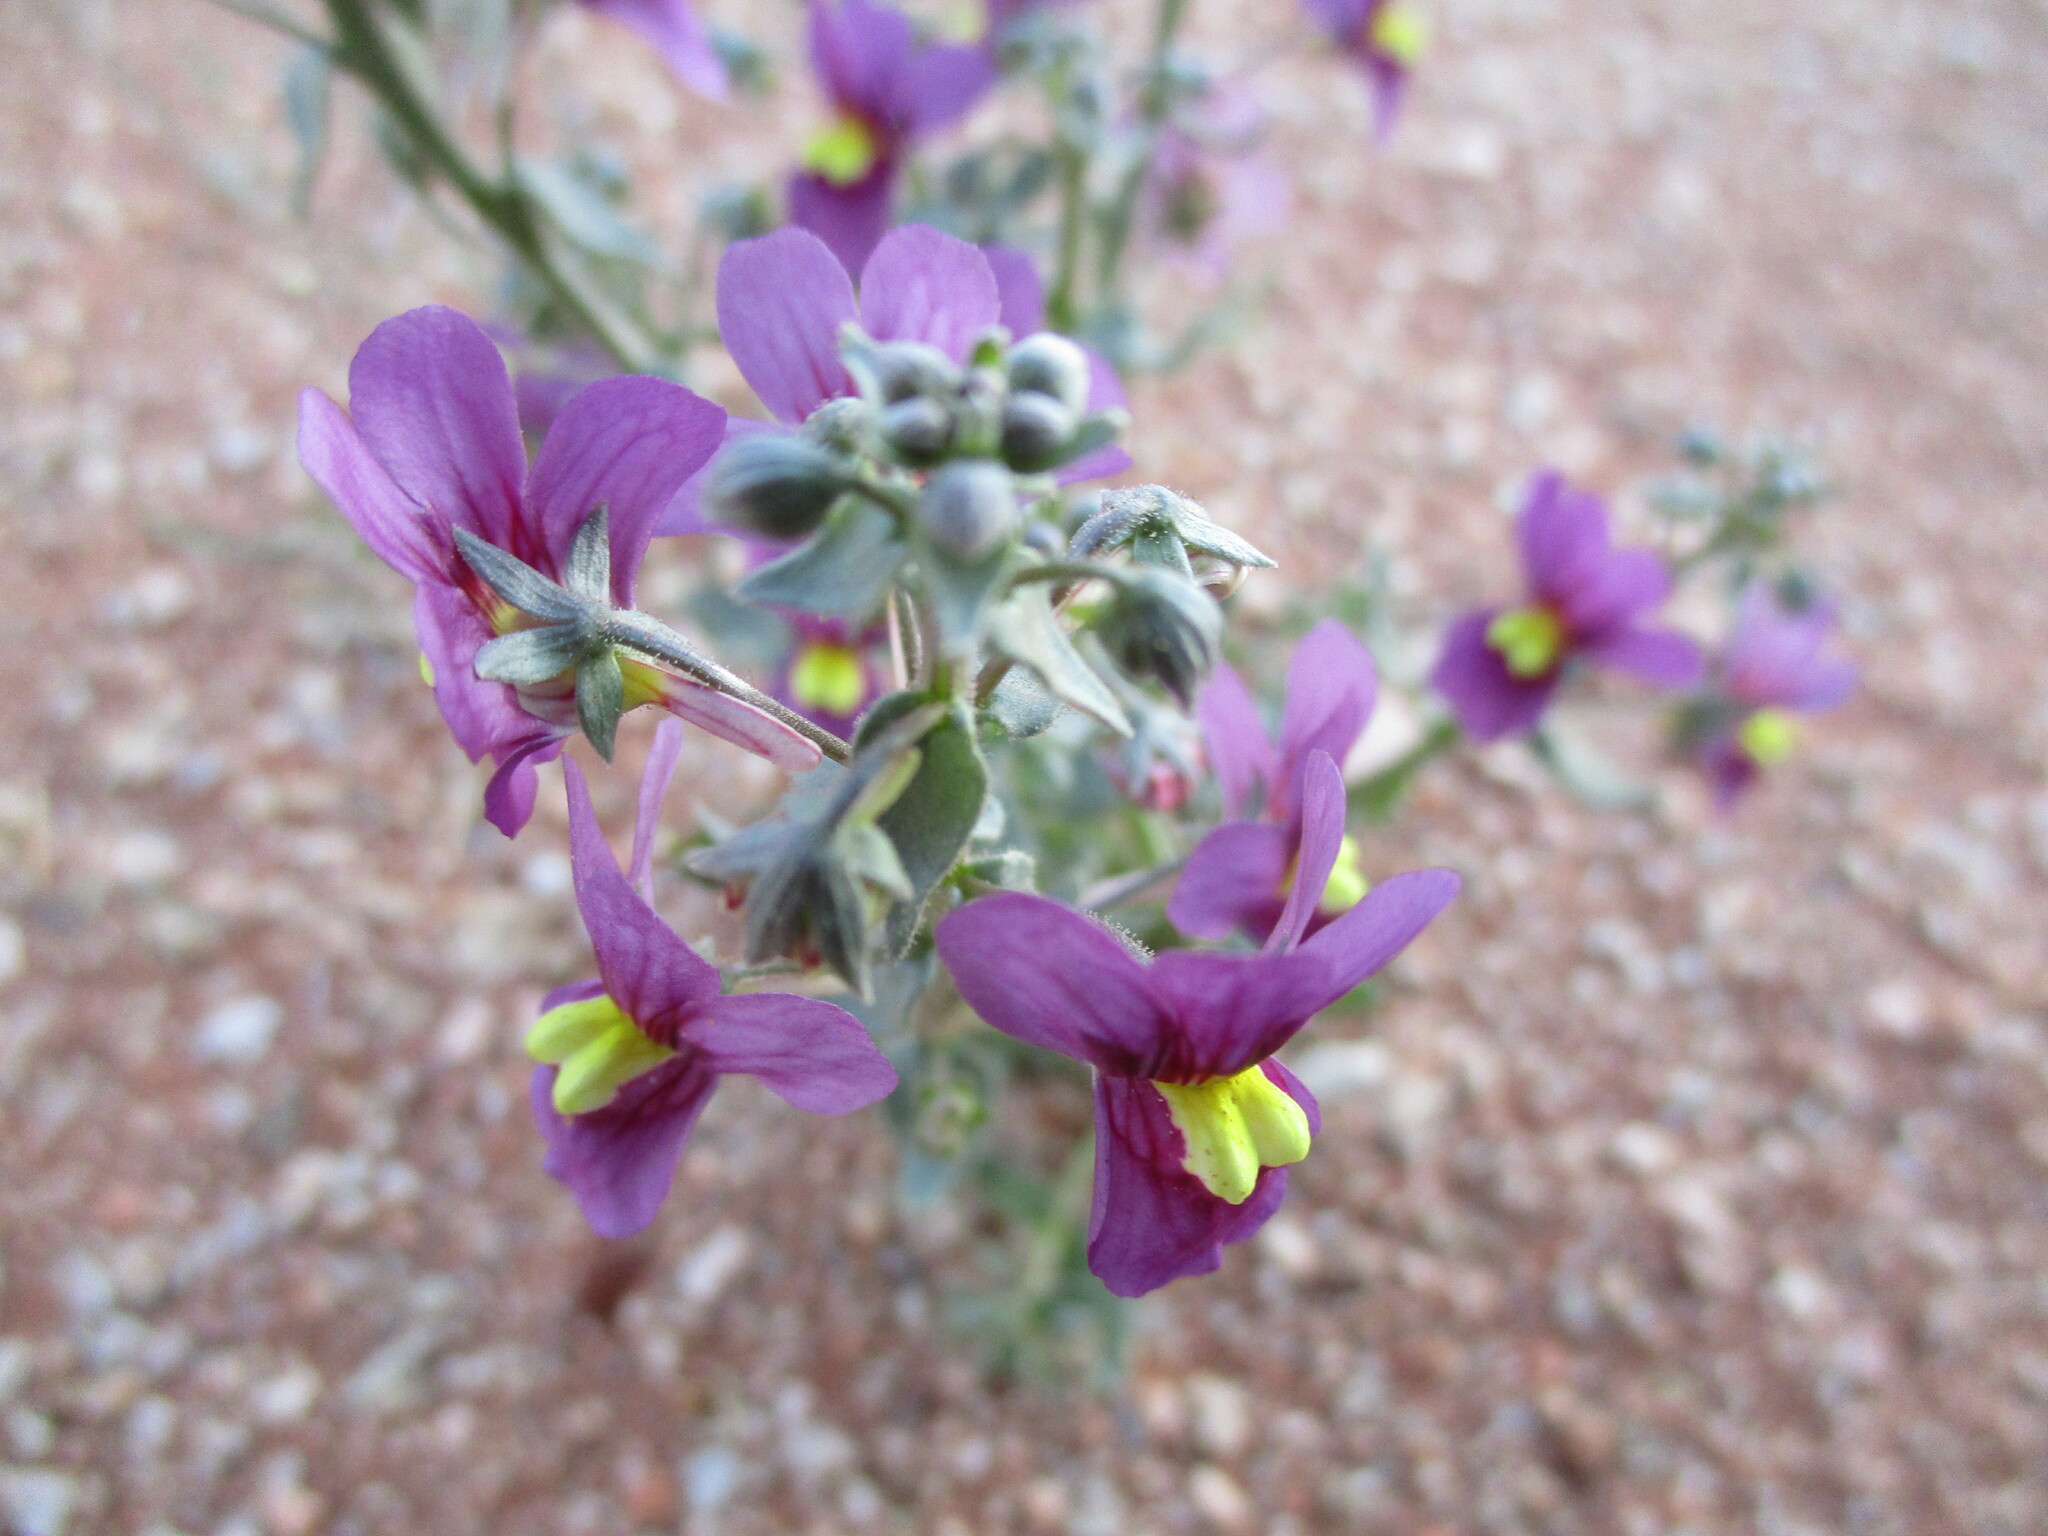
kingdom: Plantae
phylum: Tracheophyta
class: Magnoliopsida
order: Lamiales
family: Scrophulariaceae
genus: Nemesia
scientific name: Nemesia fleckii
